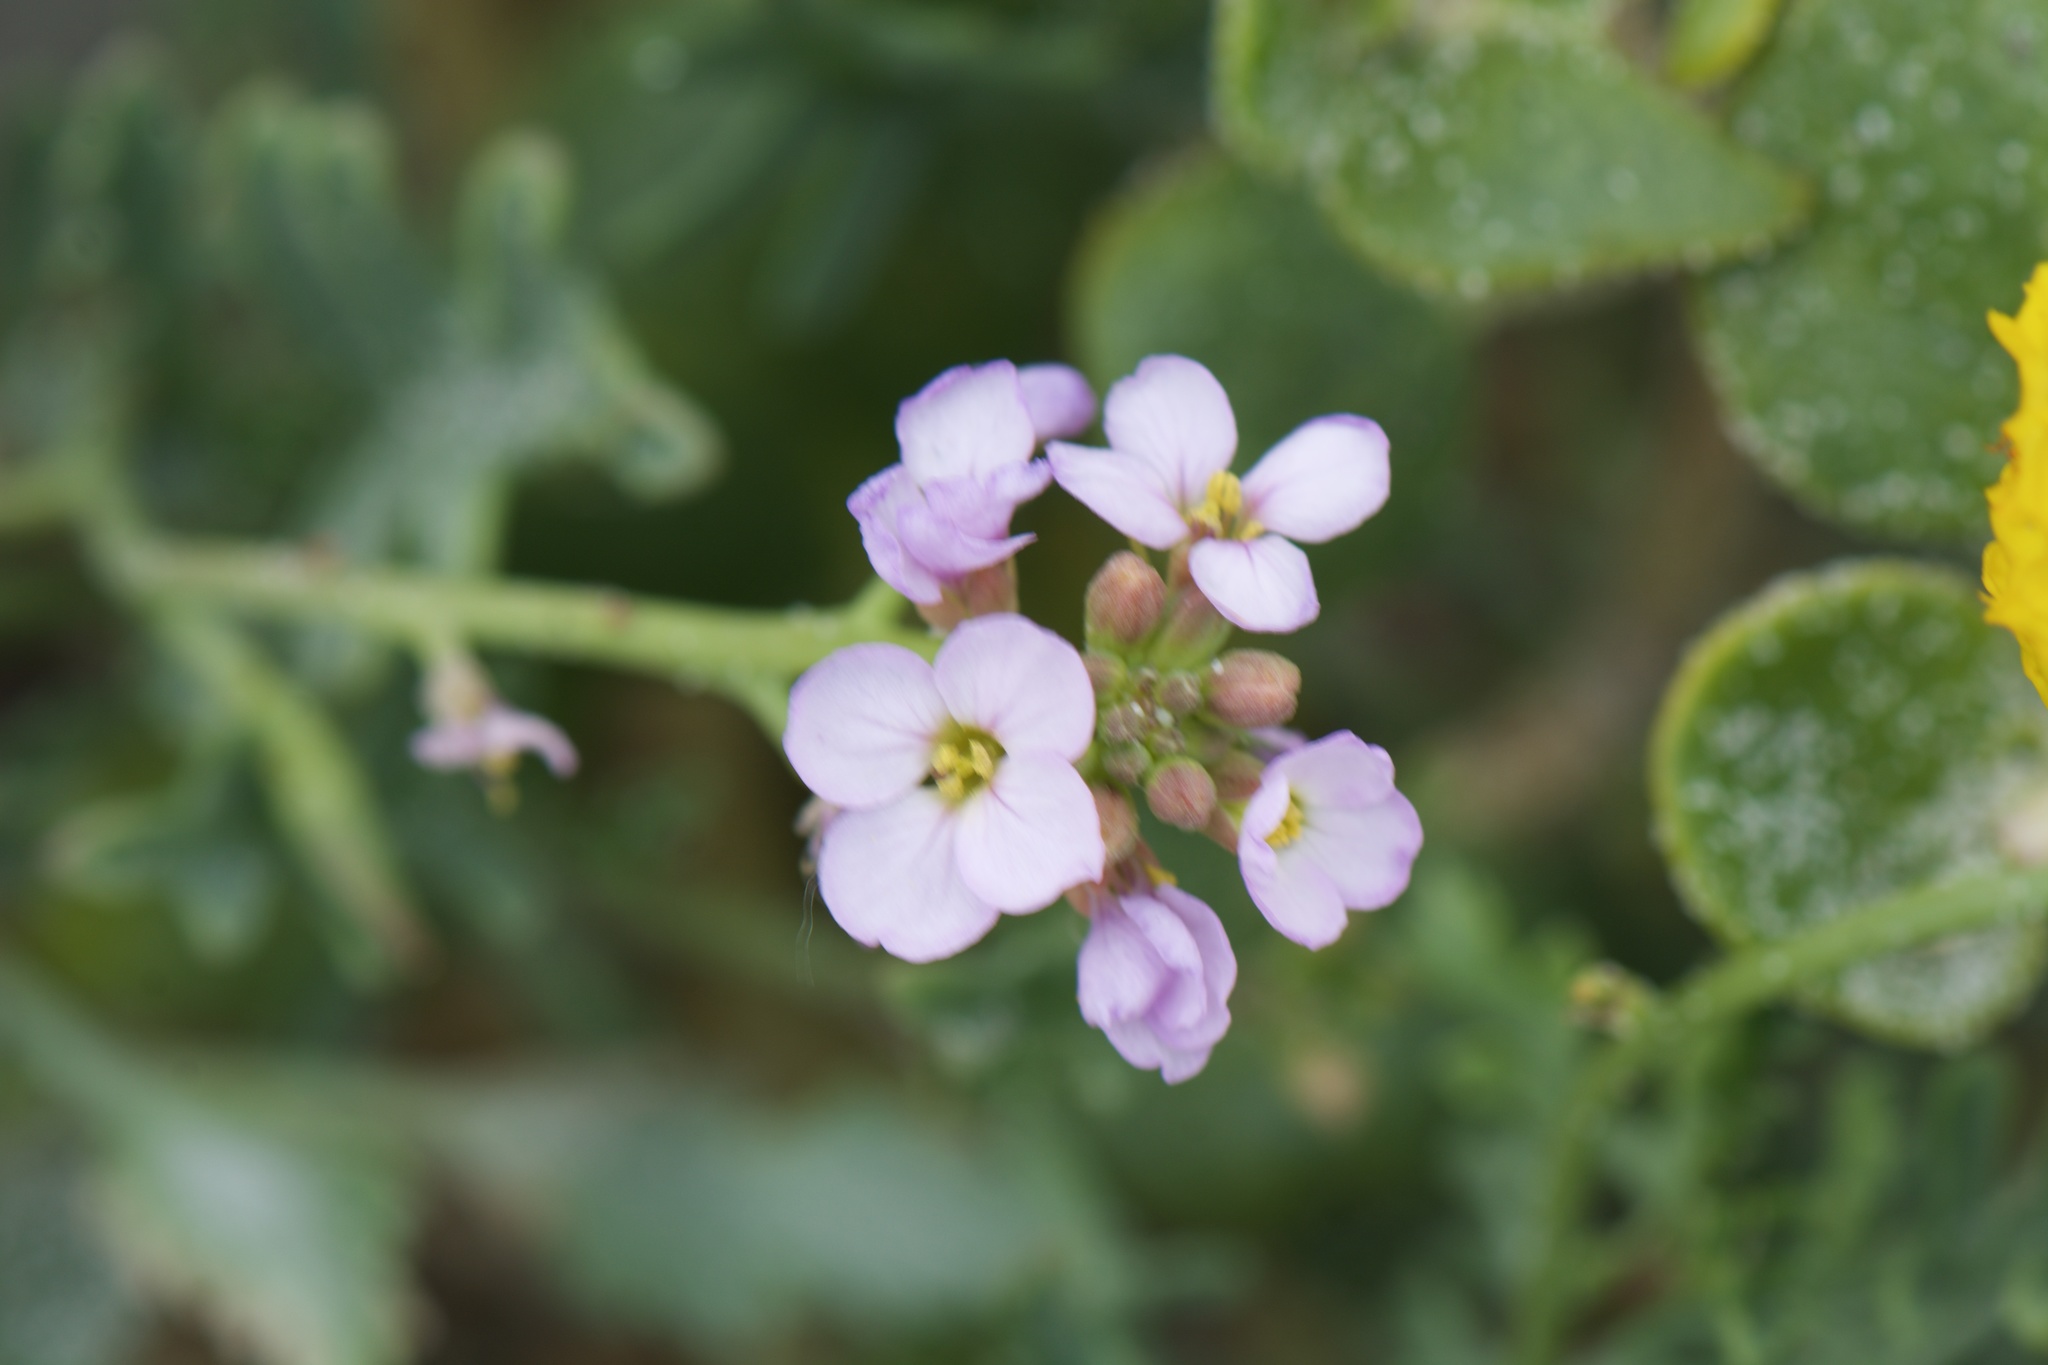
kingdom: Plantae
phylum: Tracheophyta
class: Magnoliopsida
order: Brassicales
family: Brassicaceae
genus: Cakile
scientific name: Cakile maritima
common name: Sea rocket
